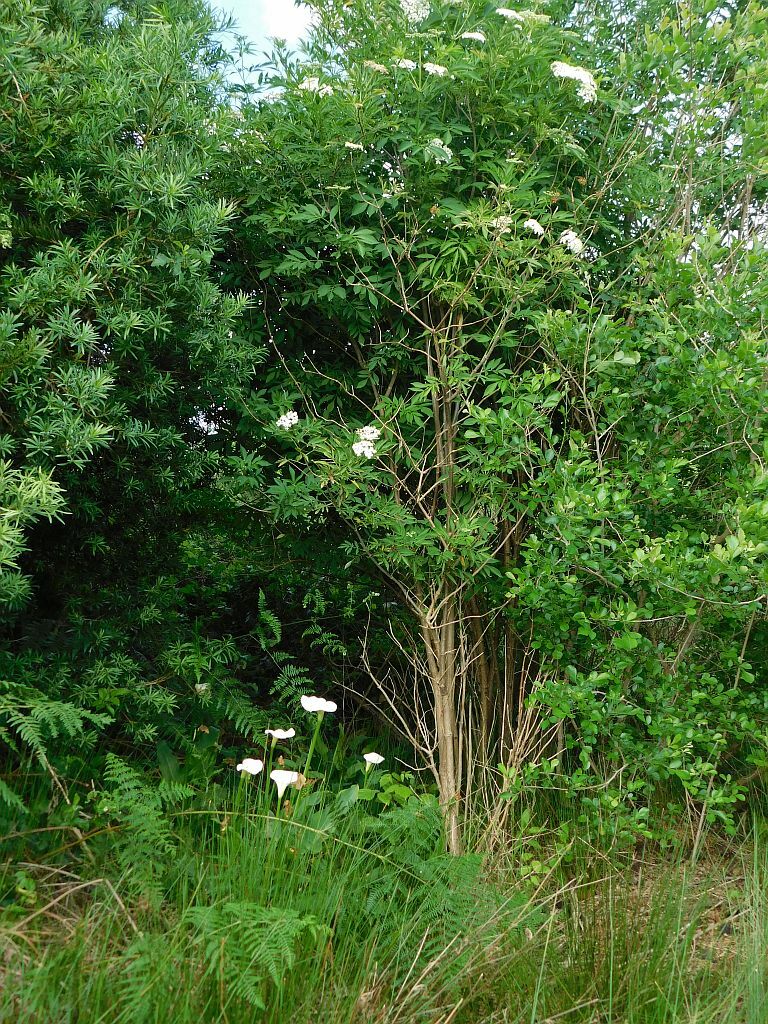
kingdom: Plantae
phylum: Tracheophyta
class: Magnoliopsida
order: Dipsacales
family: Viburnaceae
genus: Sambucus
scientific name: Sambucus nigra
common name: Elder
